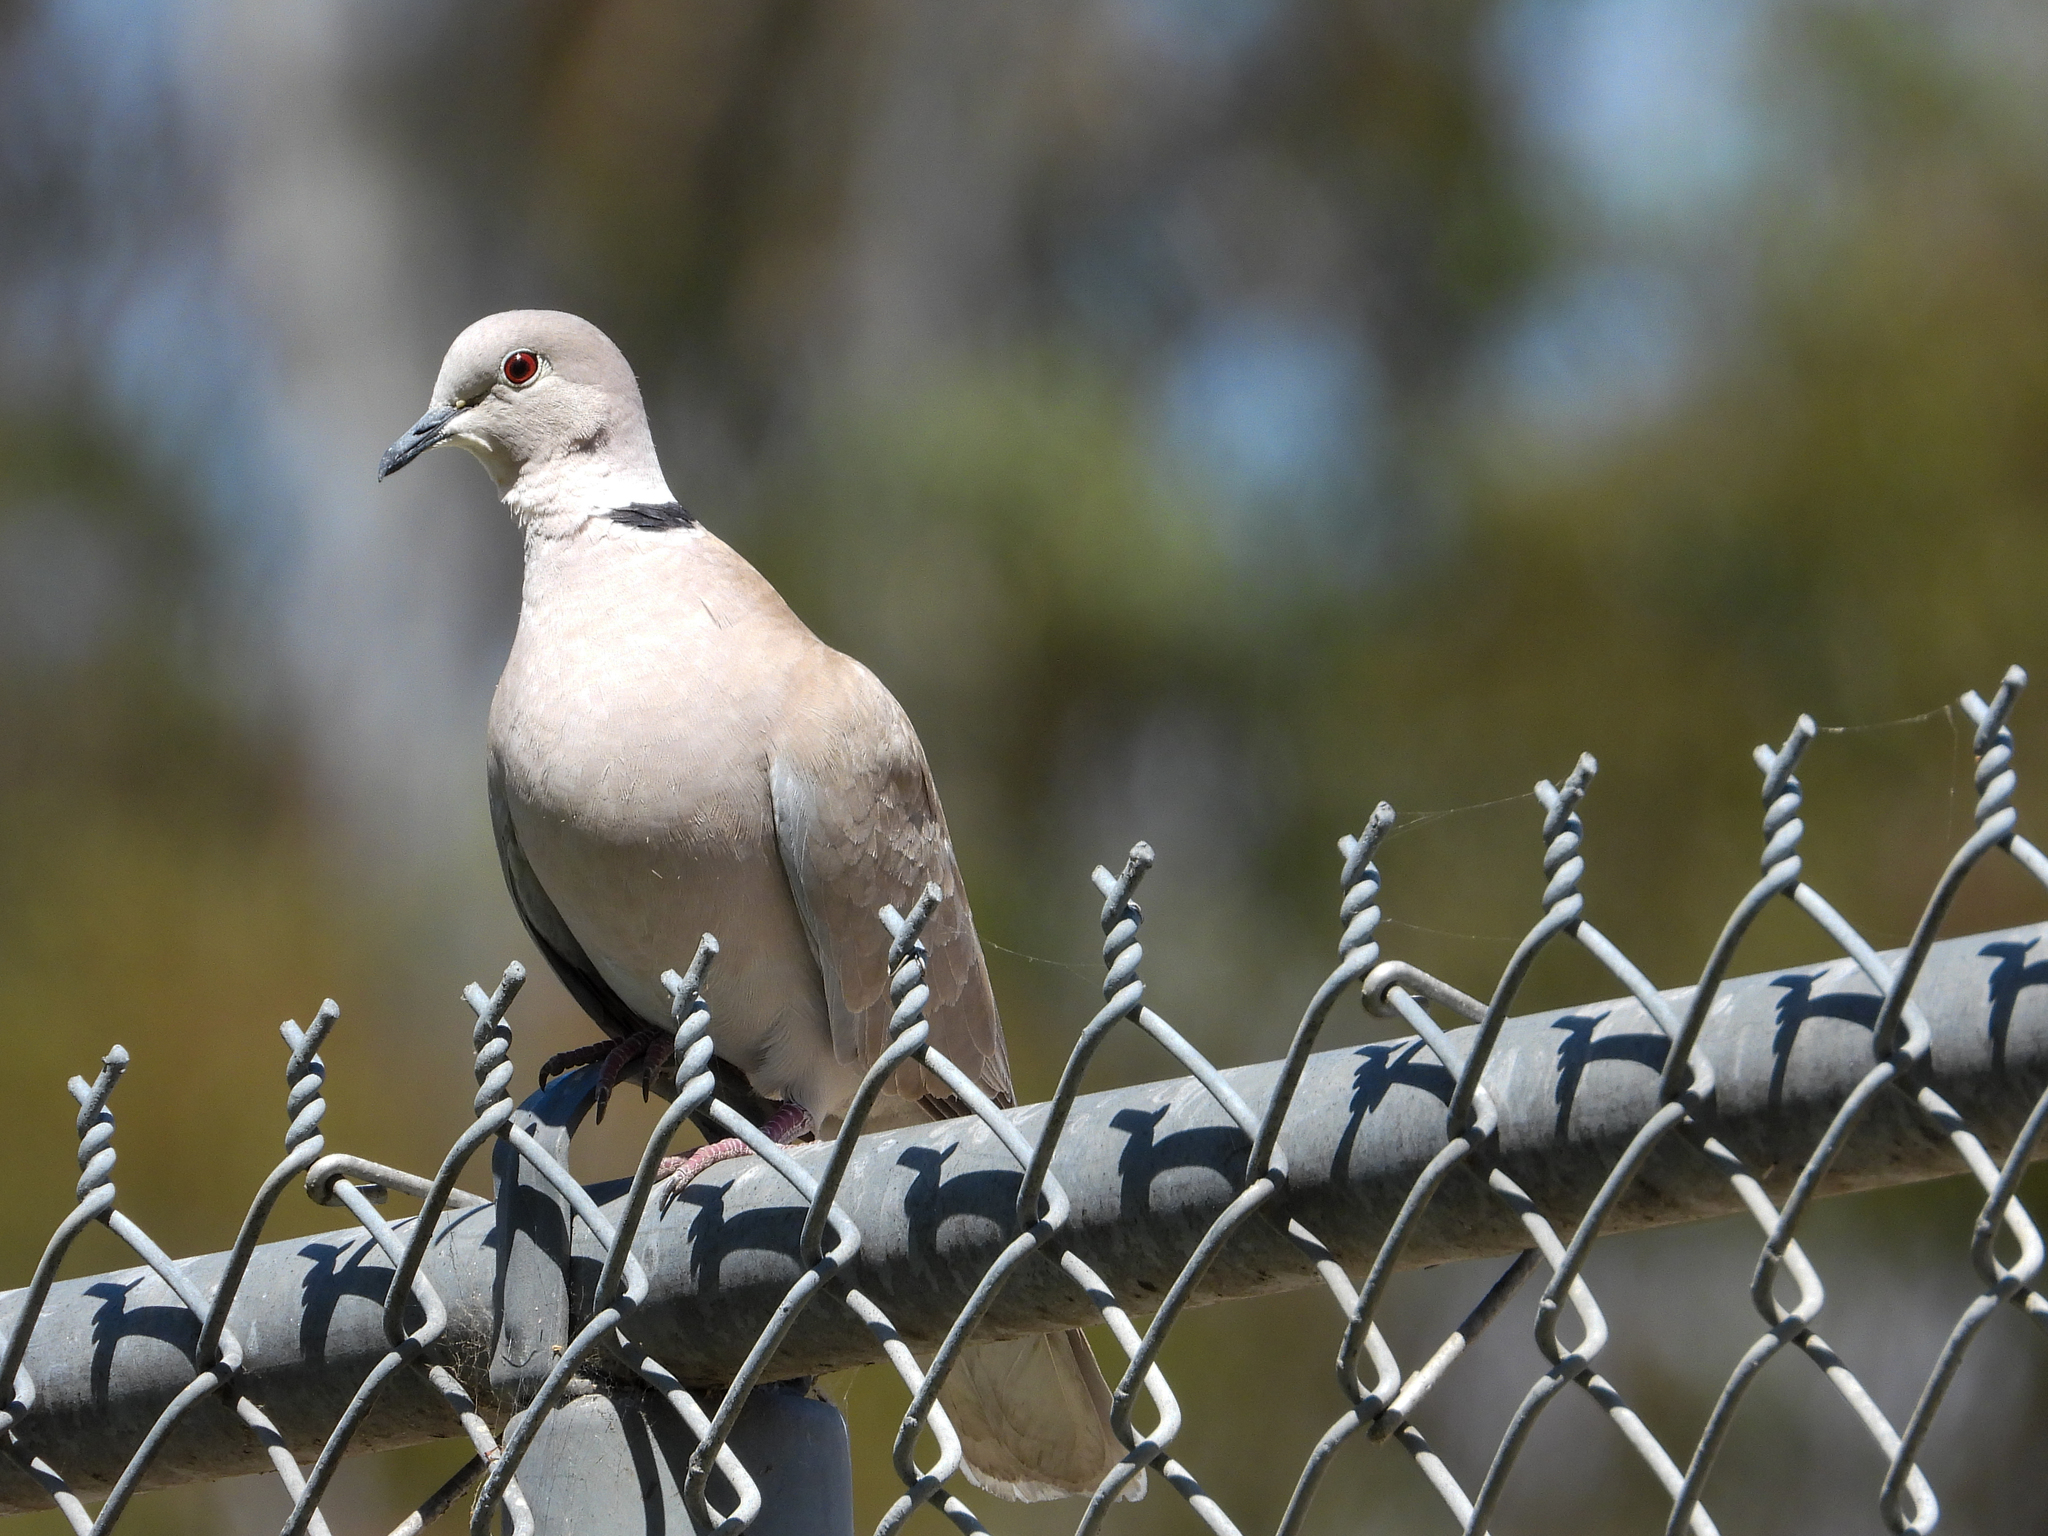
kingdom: Animalia
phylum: Chordata
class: Aves
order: Columbiformes
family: Columbidae
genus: Streptopelia
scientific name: Streptopelia decaocto
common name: Eurasian collared dove
